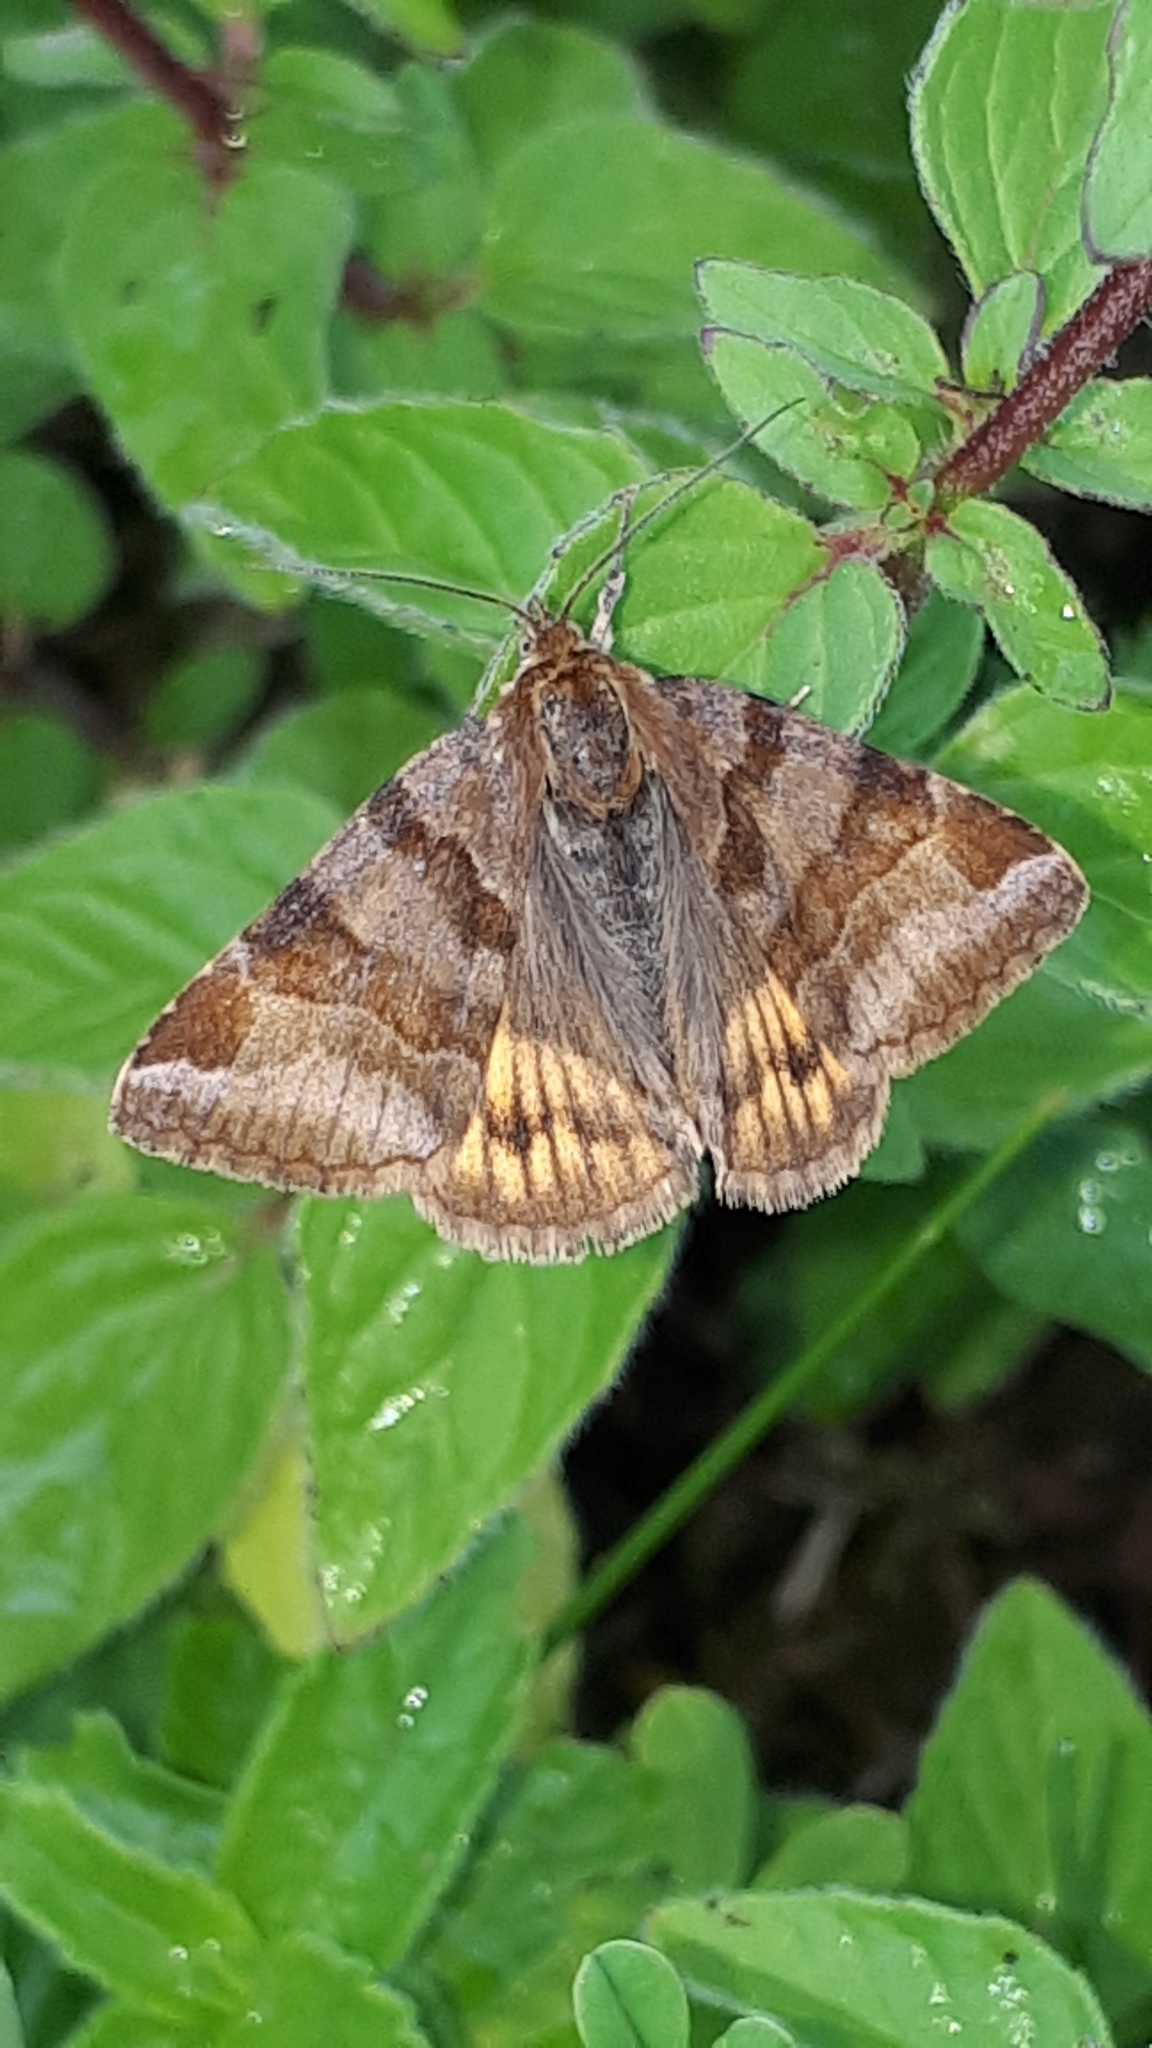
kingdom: Animalia
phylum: Arthropoda
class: Insecta
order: Lepidoptera
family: Erebidae
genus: Euclidia
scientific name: Euclidia glyphica
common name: Burnet companion
